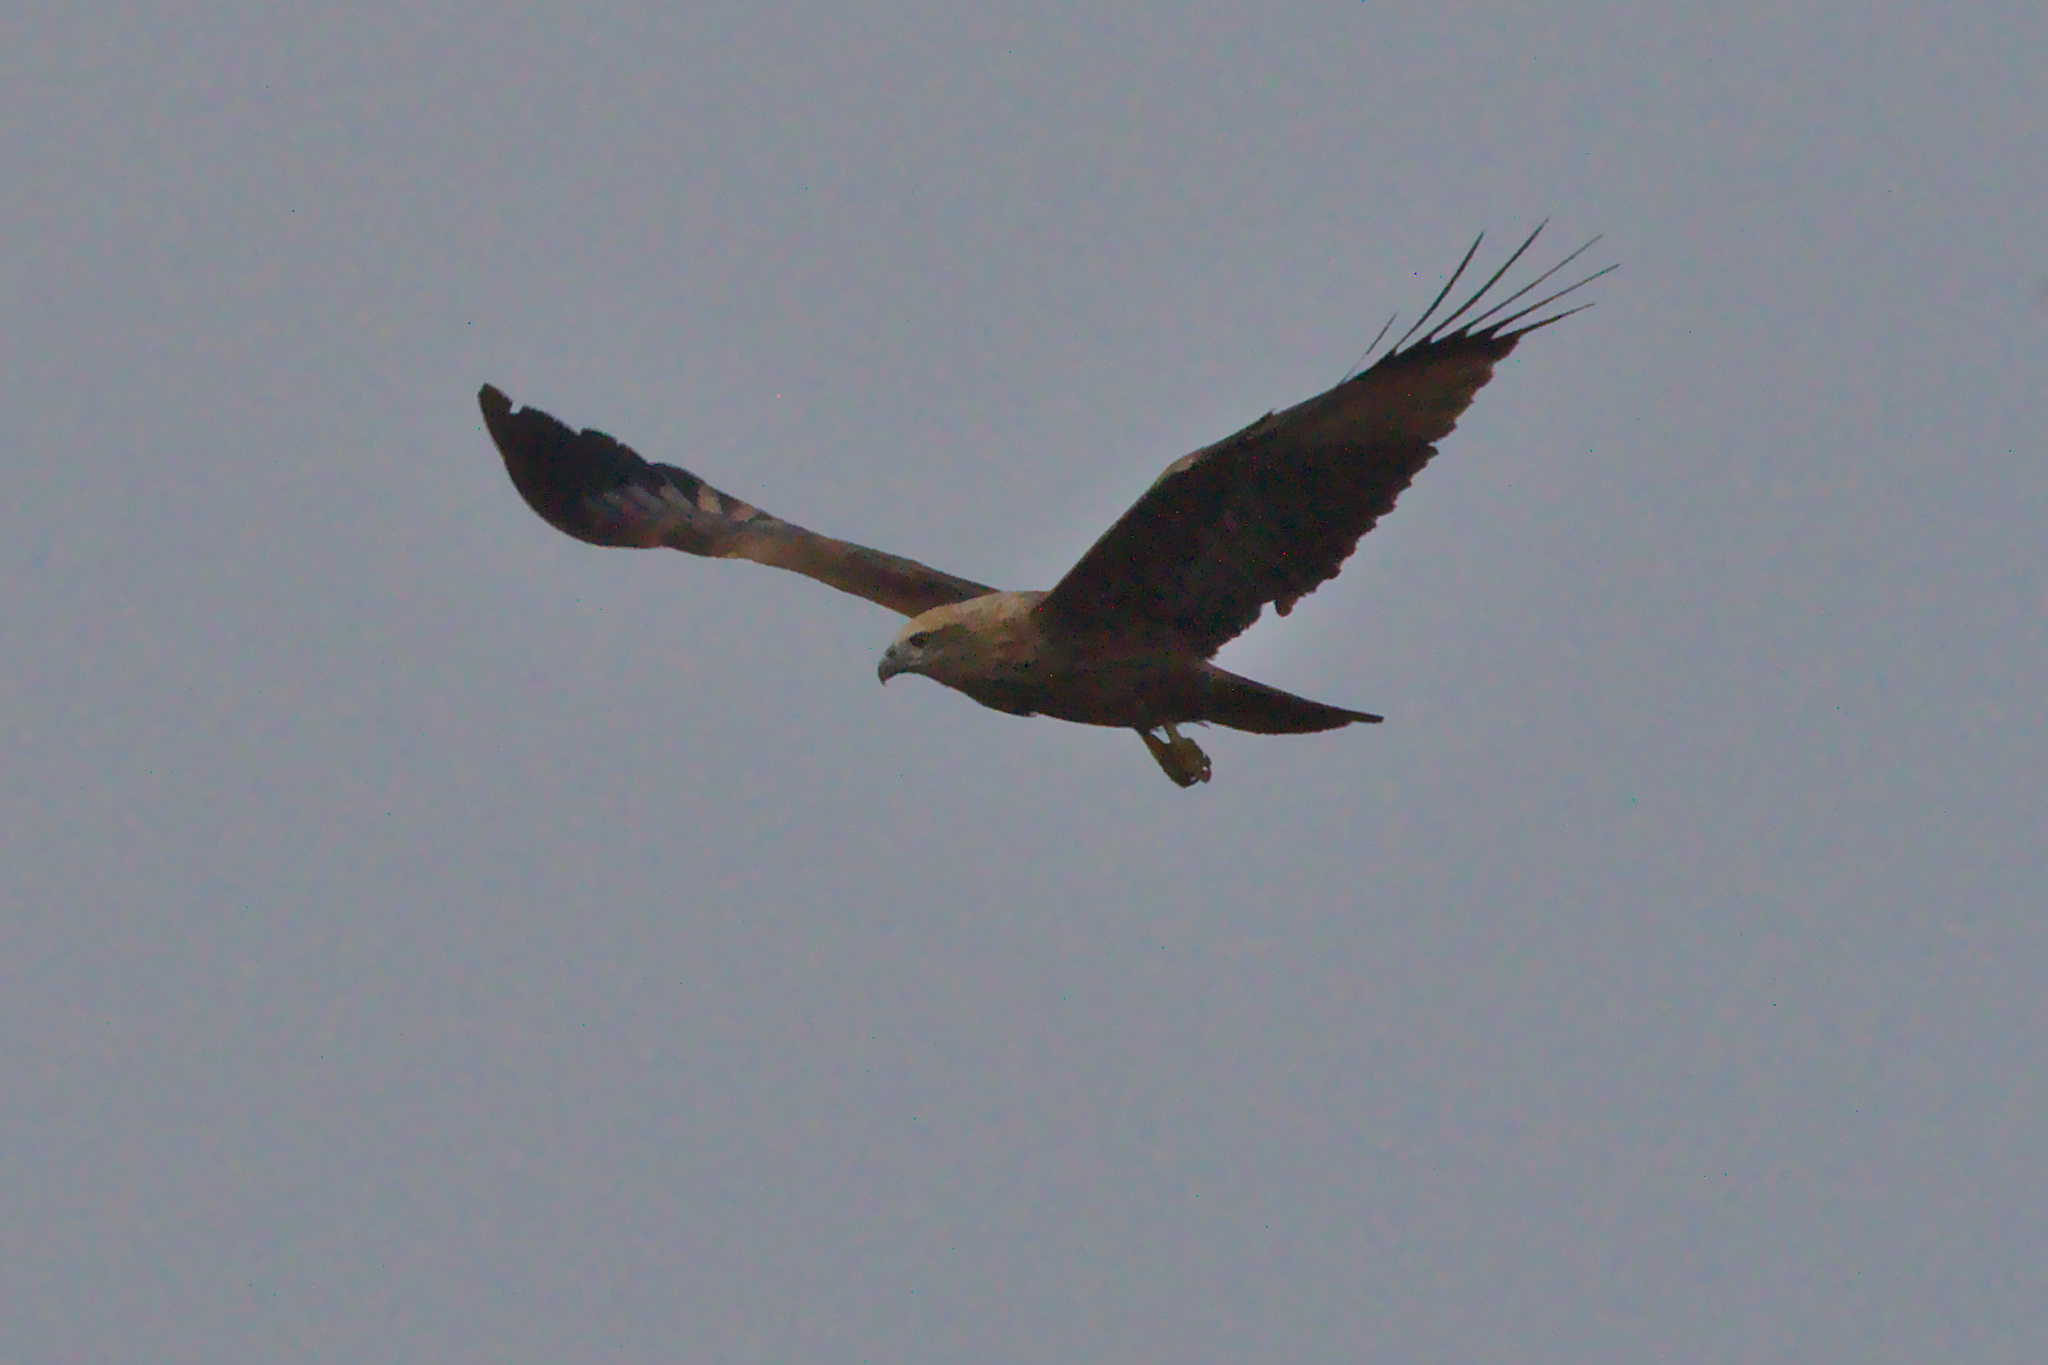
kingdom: Animalia
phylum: Chordata
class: Aves
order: Accipitriformes
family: Accipitridae
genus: Haliastur
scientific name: Haliastur indus
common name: Brahminy kite
